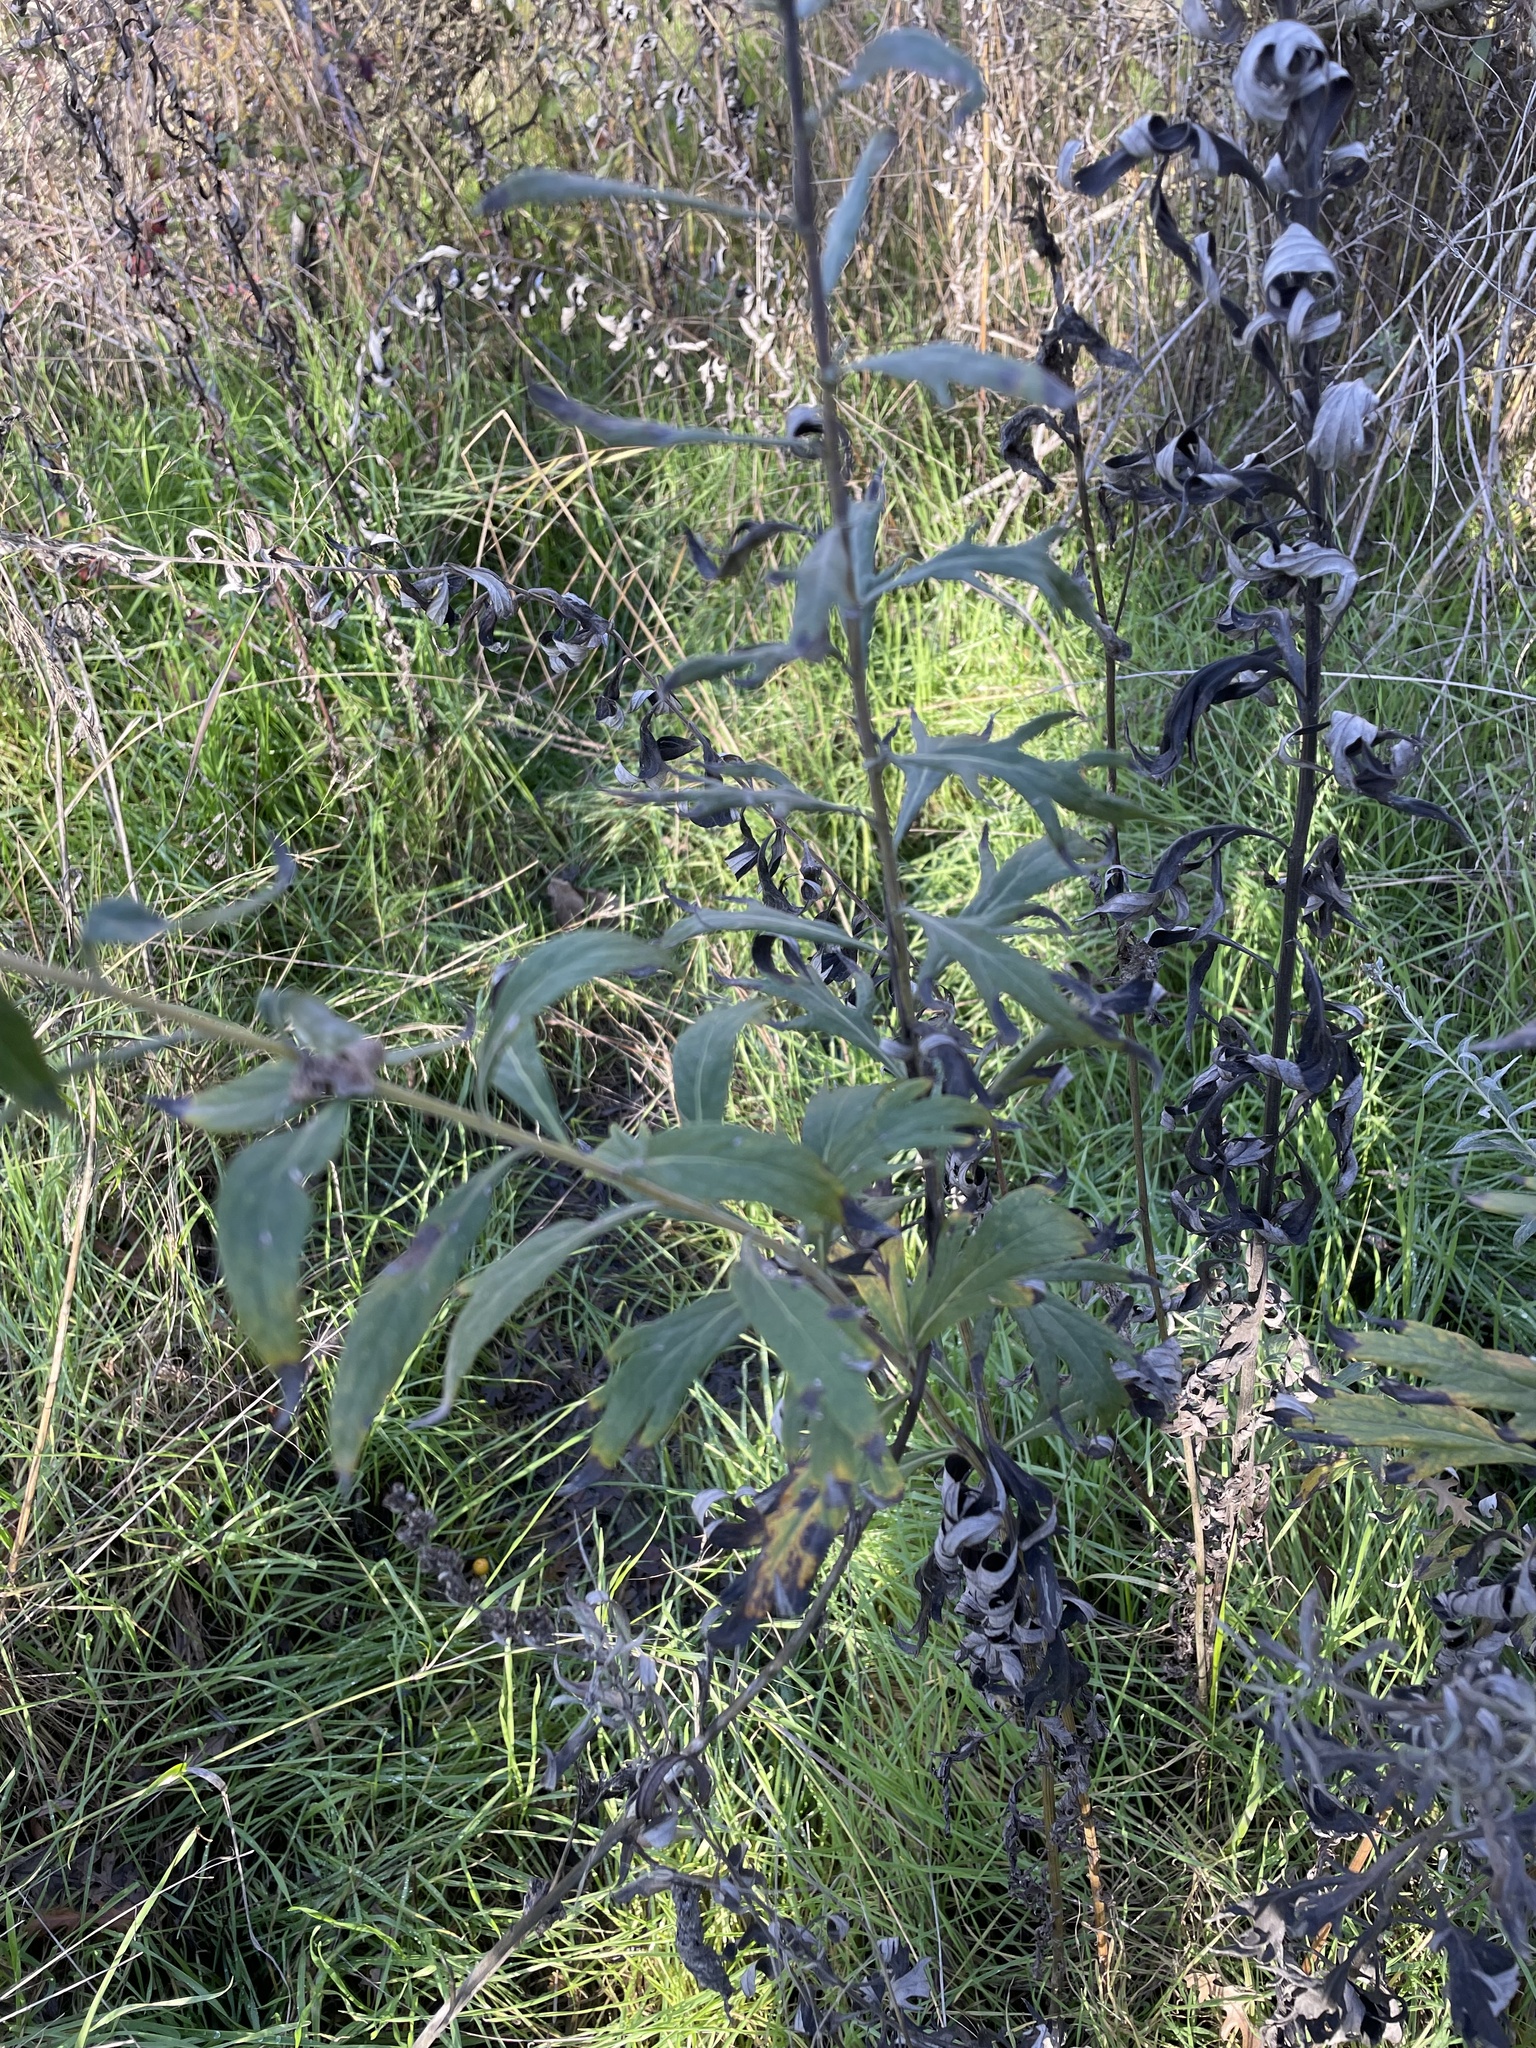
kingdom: Plantae
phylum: Tracheophyta
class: Magnoliopsida
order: Asterales
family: Asteraceae
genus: Artemisia
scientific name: Artemisia douglasiana
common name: Northwest mugwort
